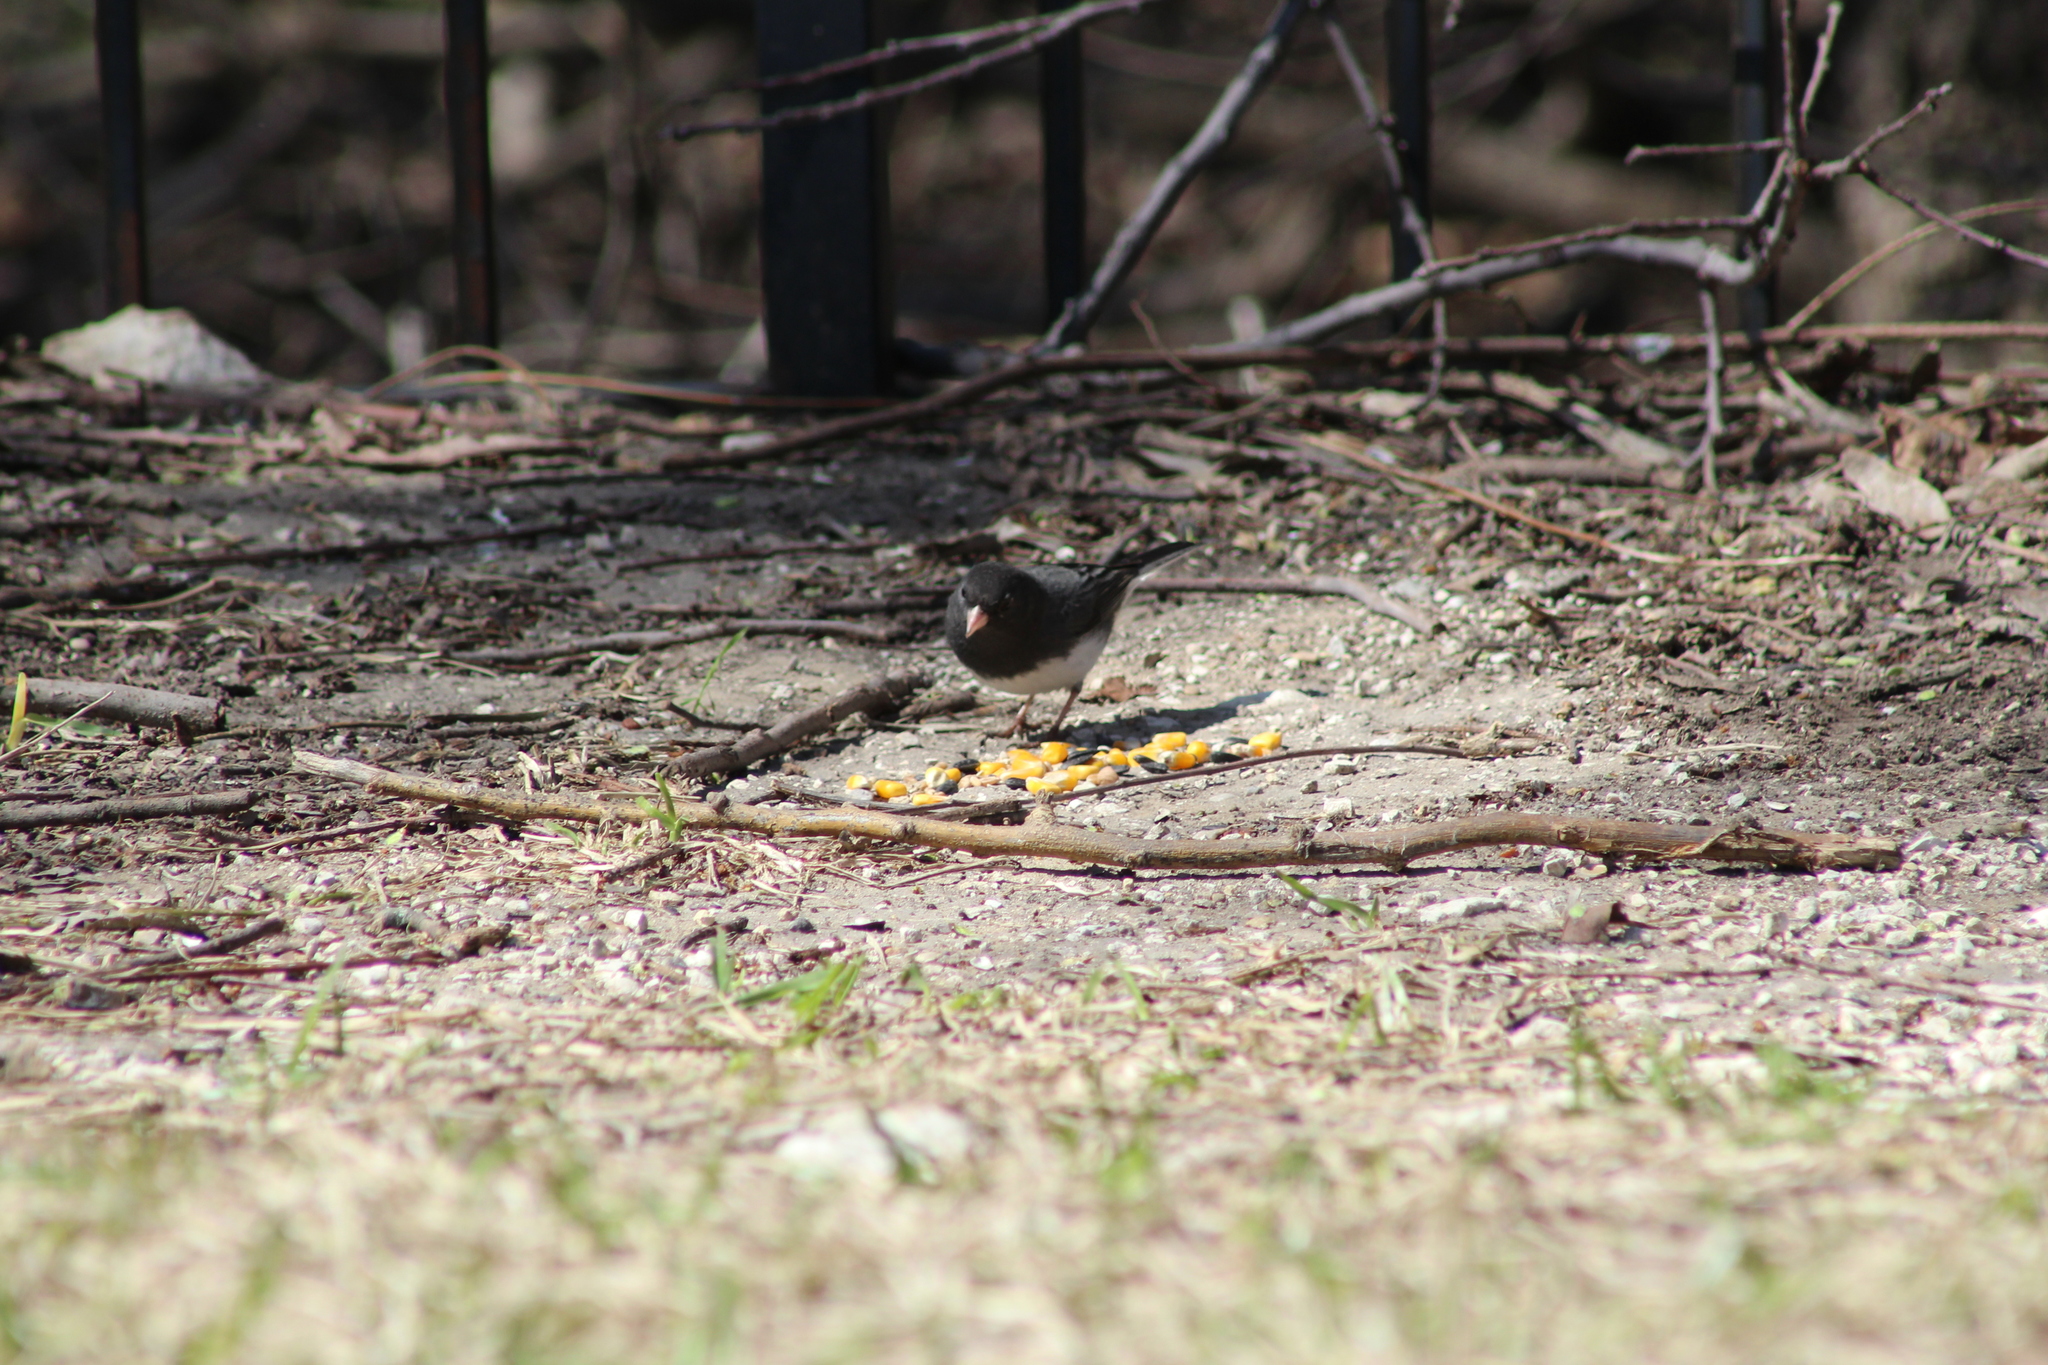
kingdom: Animalia
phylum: Chordata
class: Aves
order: Passeriformes
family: Passerellidae
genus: Junco
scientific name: Junco hyemalis
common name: Dark-eyed junco
